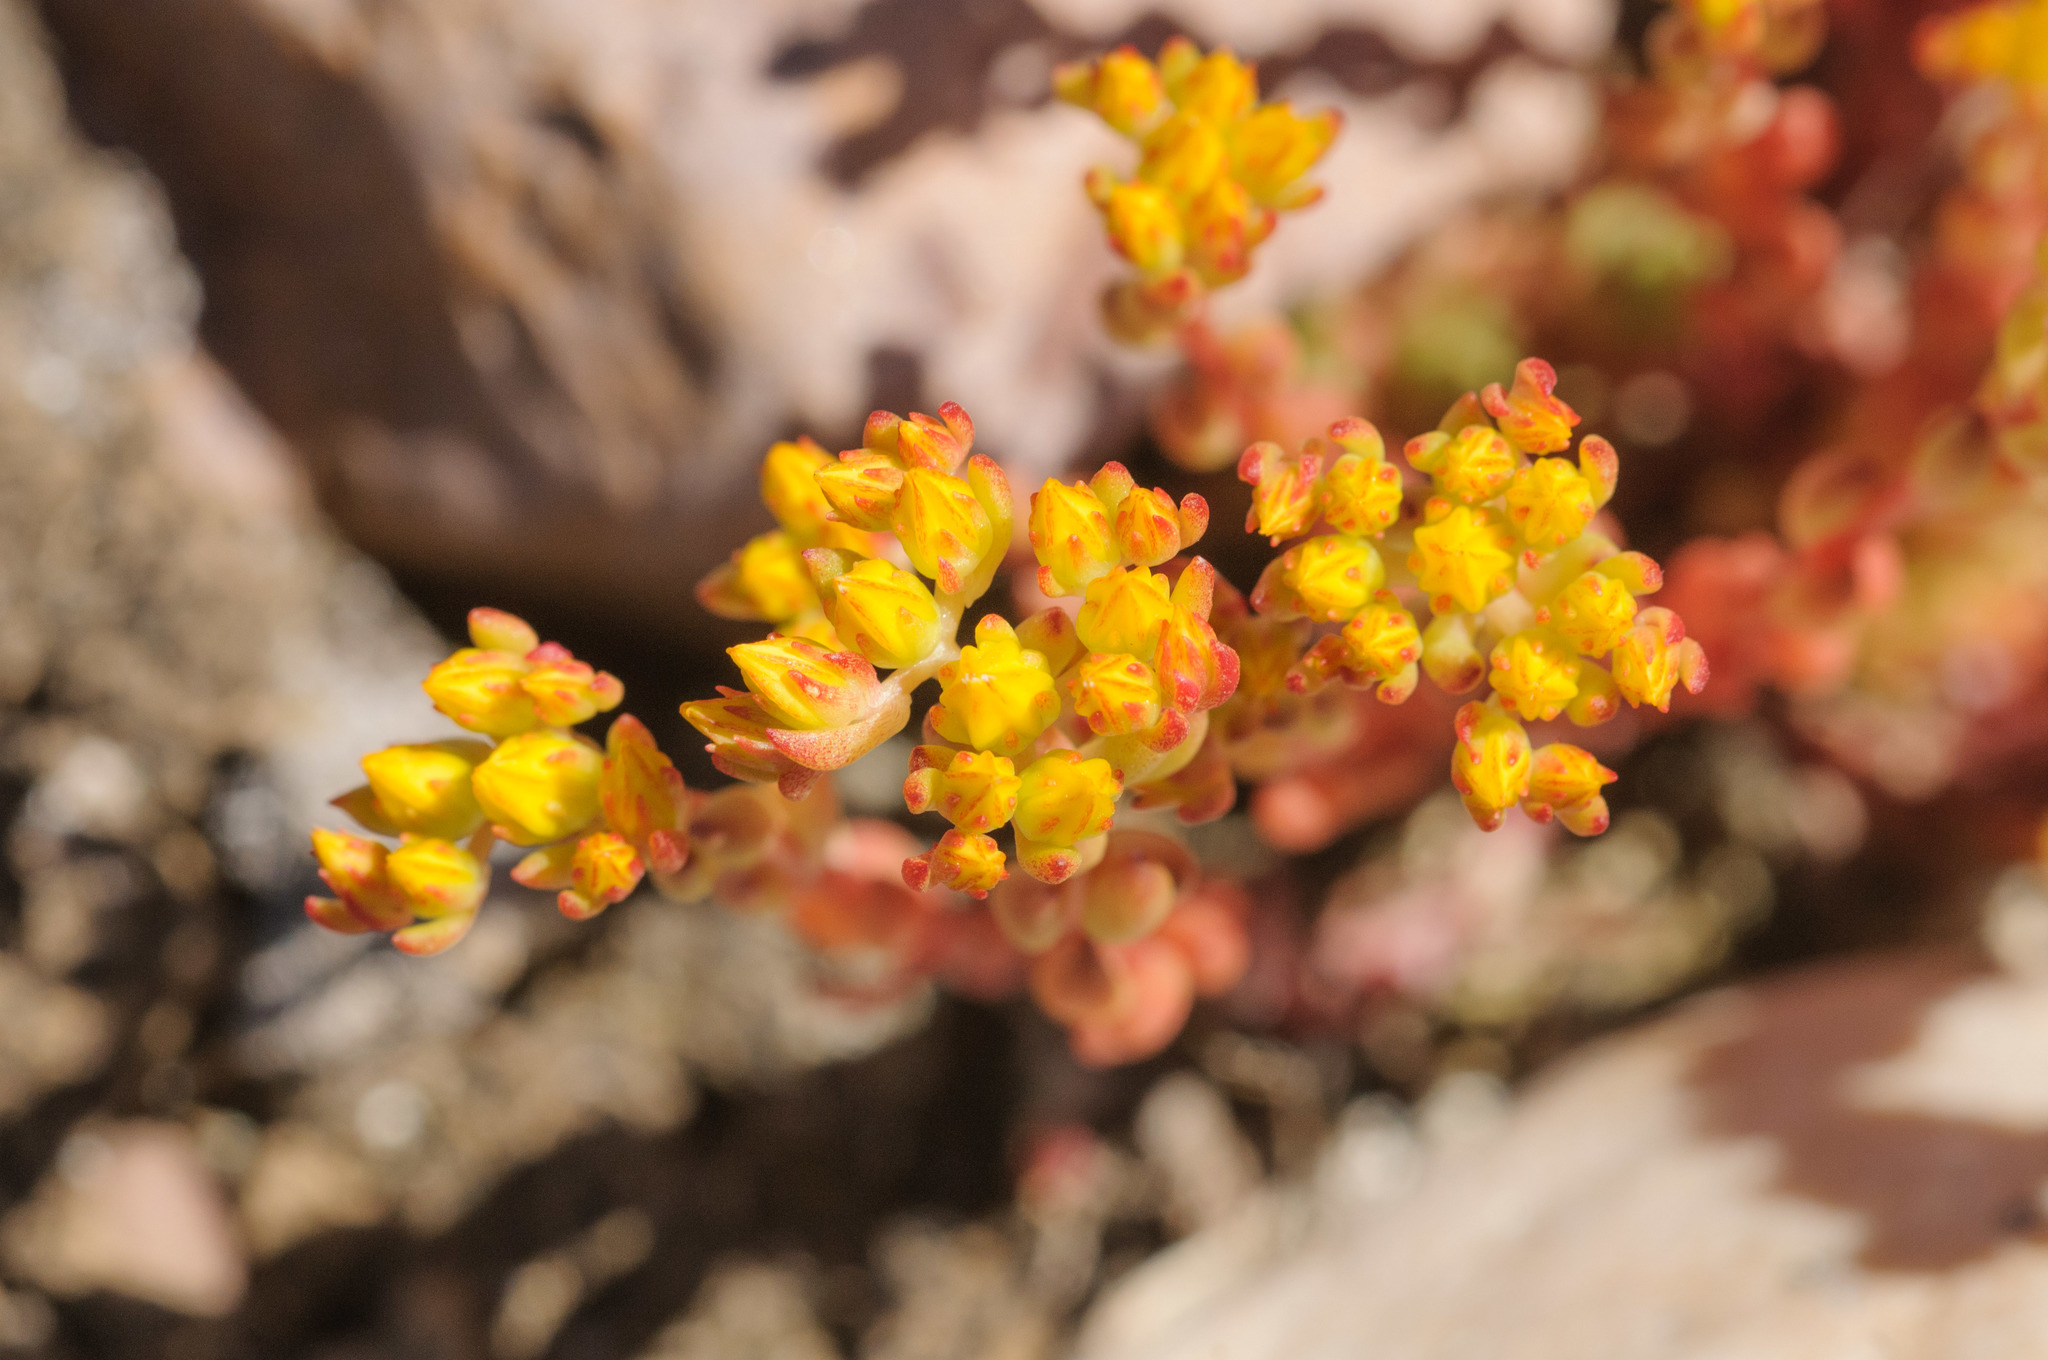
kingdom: Plantae
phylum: Tracheophyta
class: Magnoliopsida
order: Saxifragales
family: Crassulaceae
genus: Sedum
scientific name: Sedum lanceolatum
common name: Common stonecrop
